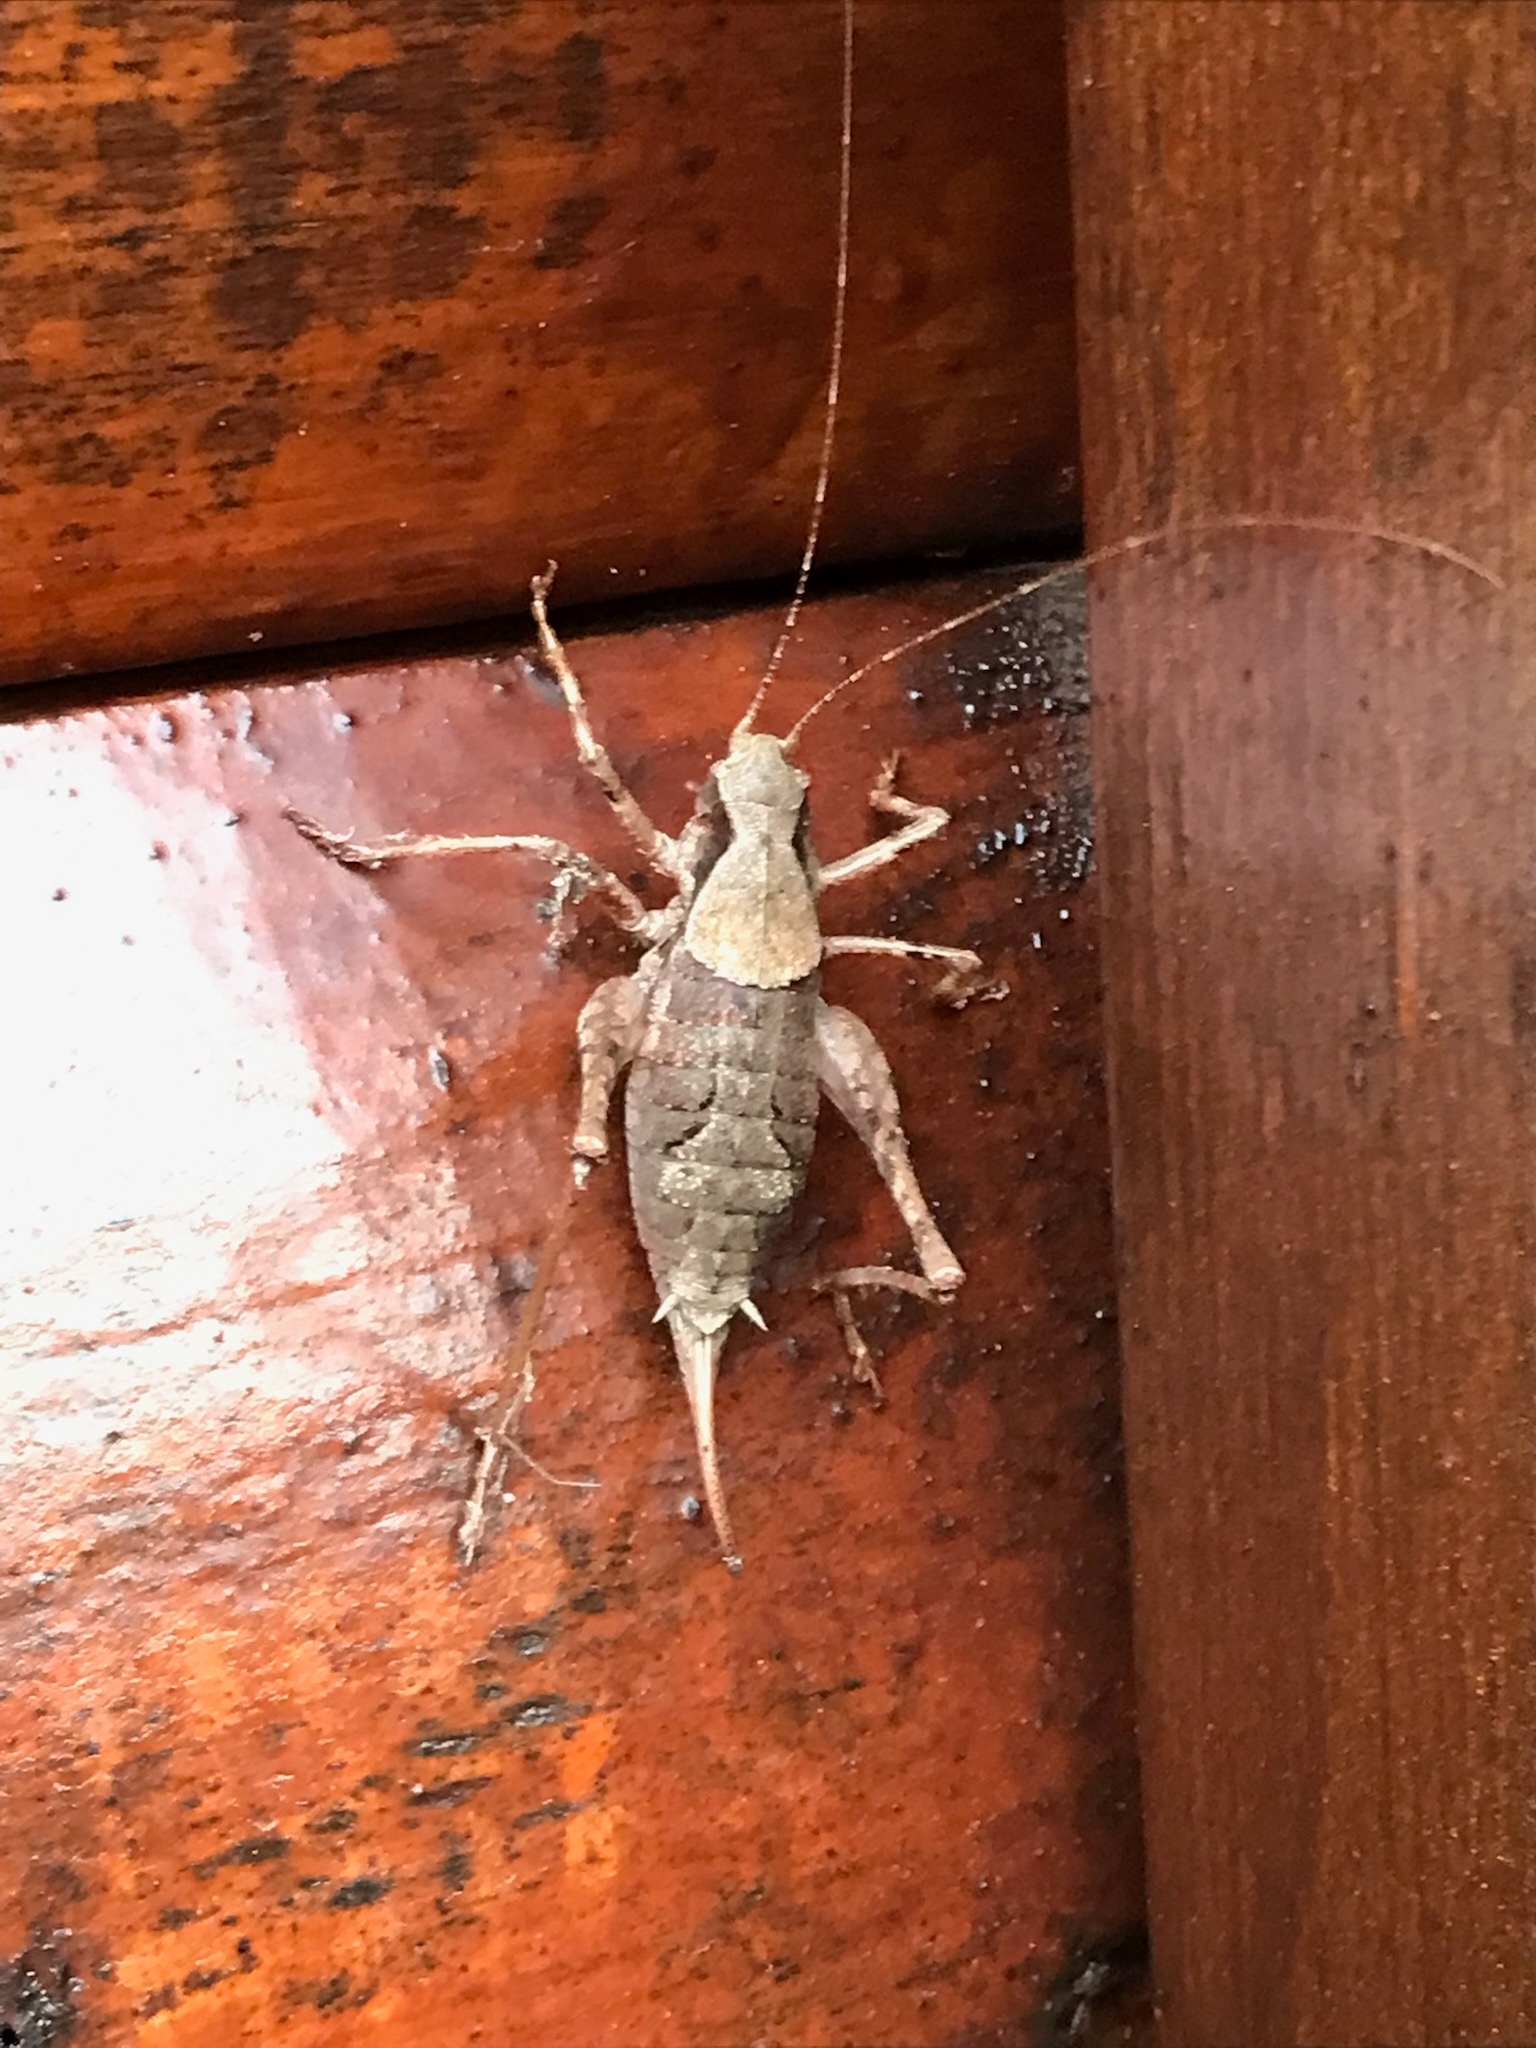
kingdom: Animalia
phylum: Arthropoda
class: Insecta
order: Orthoptera
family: Tettigoniidae
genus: Neduba
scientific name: Neduba steindachneri
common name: Steindachner's shieldback
